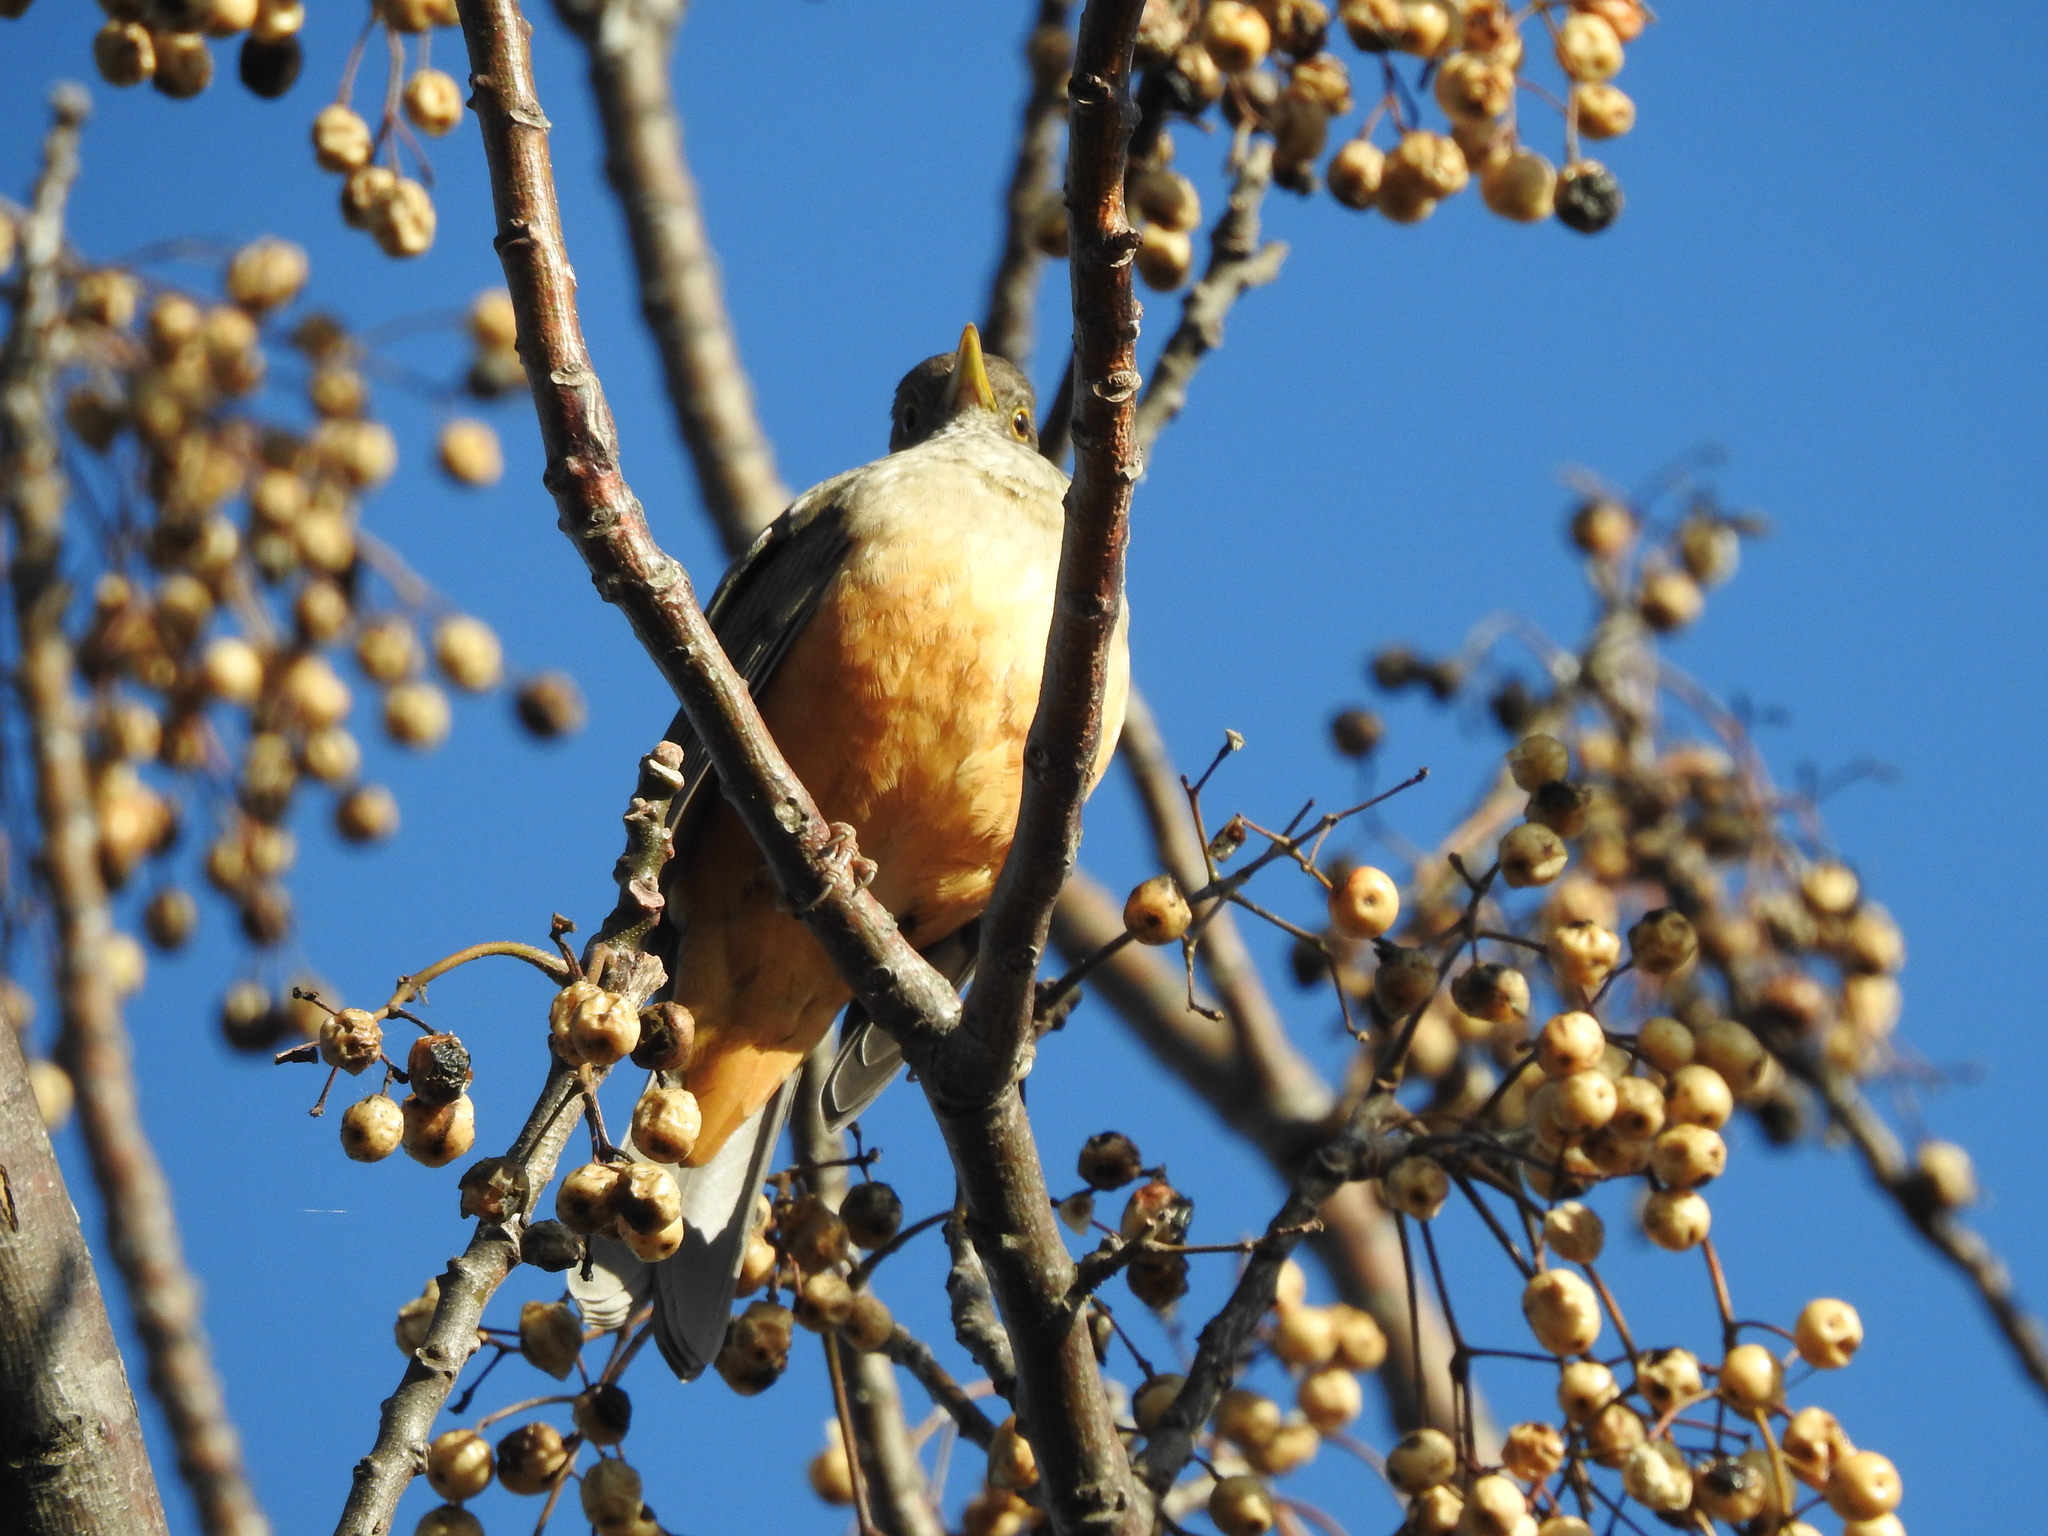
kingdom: Animalia
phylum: Chordata
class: Aves
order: Passeriformes
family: Turdidae
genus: Turdus
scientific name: Turdus rufiventris
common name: Rufous-bellied thrush
